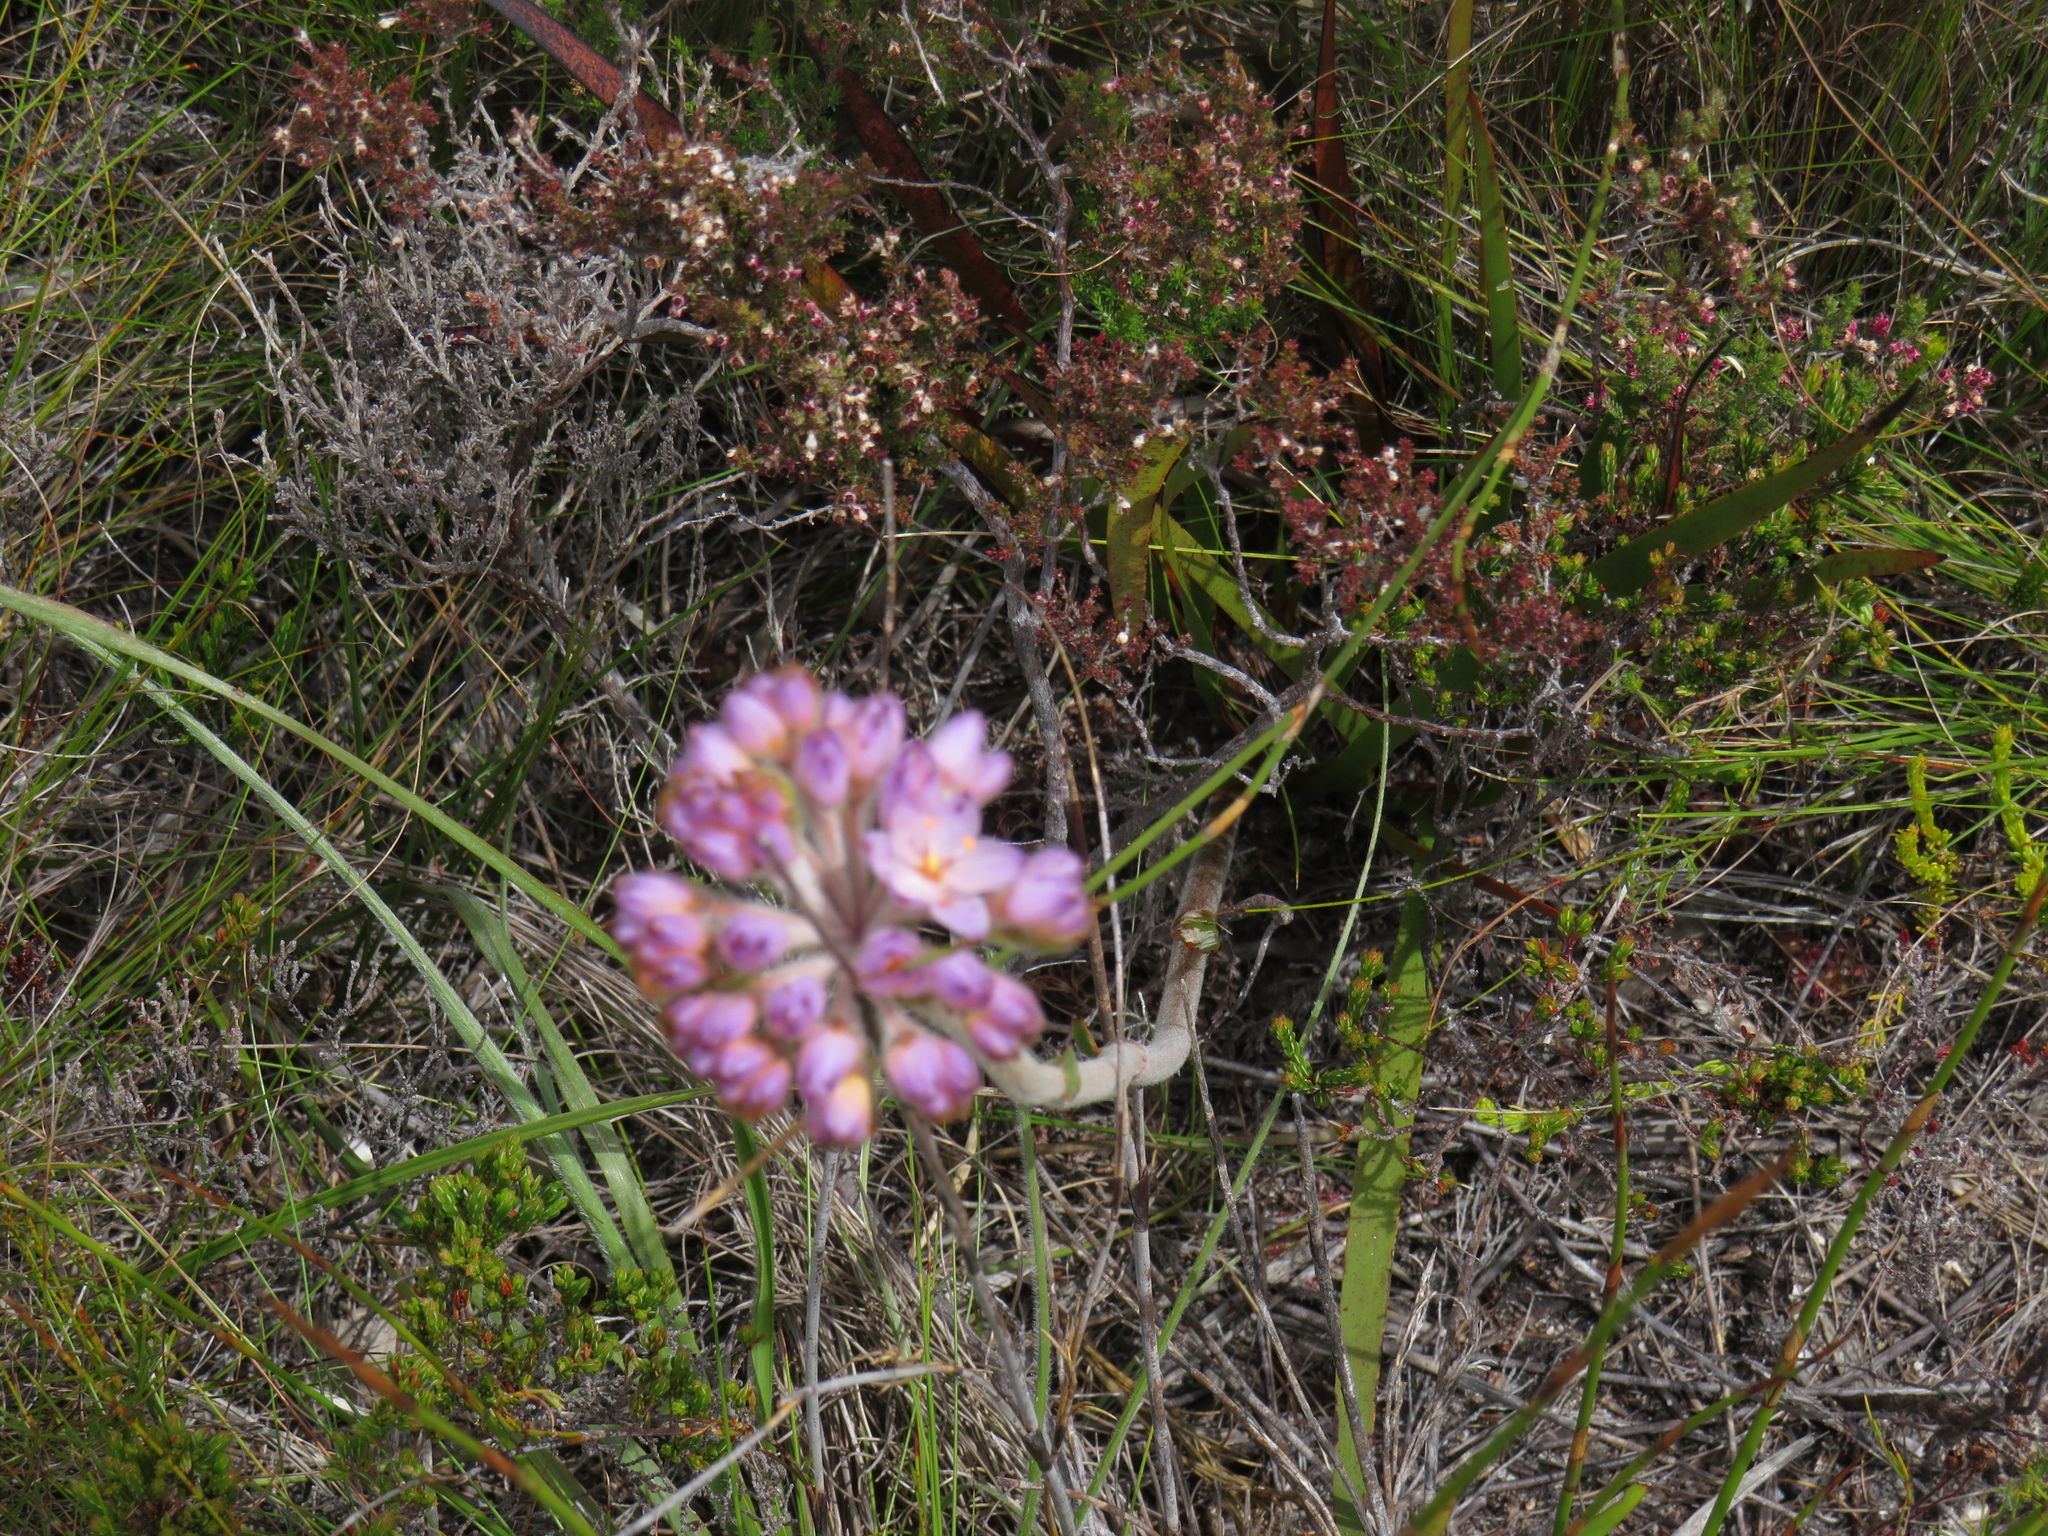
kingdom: Plantae
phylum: Tracheophyta
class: Liliopsida
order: Commelinales
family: Haemodoraceae
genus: Dilatris
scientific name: Dilatris pillansii
